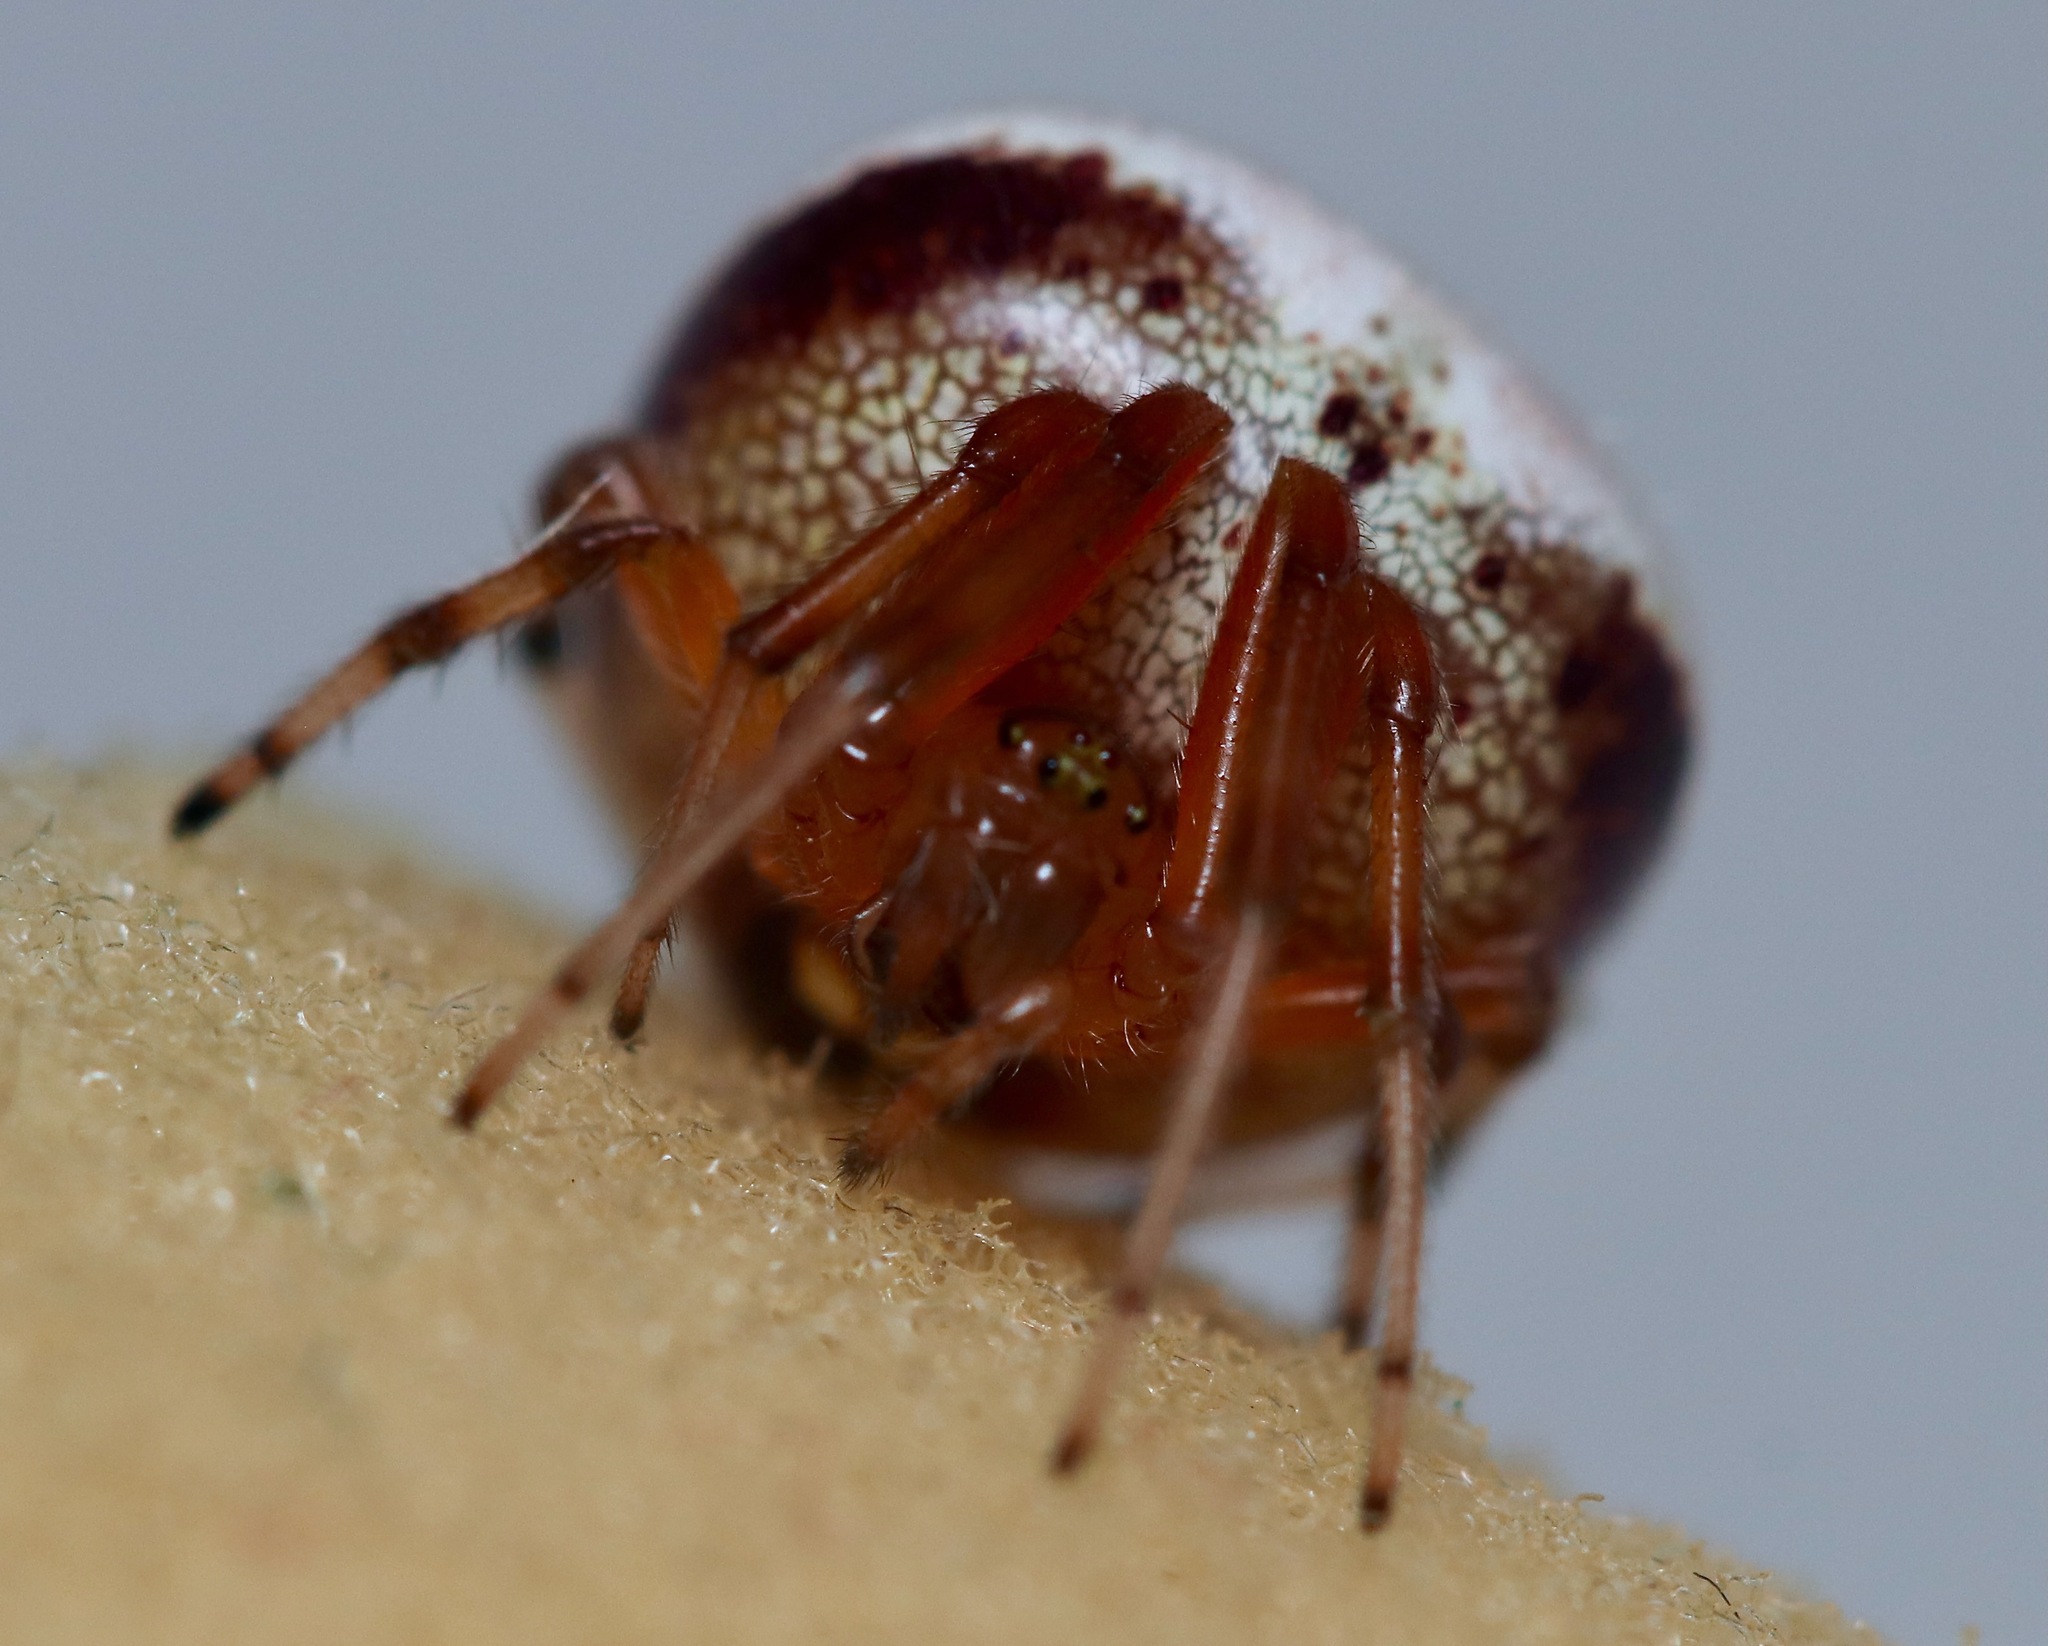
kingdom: Animalia
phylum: Arthropoda
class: Arachnida
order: Araneae
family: Araneidae
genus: Araneus
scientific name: Araneus thaddeus
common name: Lattice orbweaver
